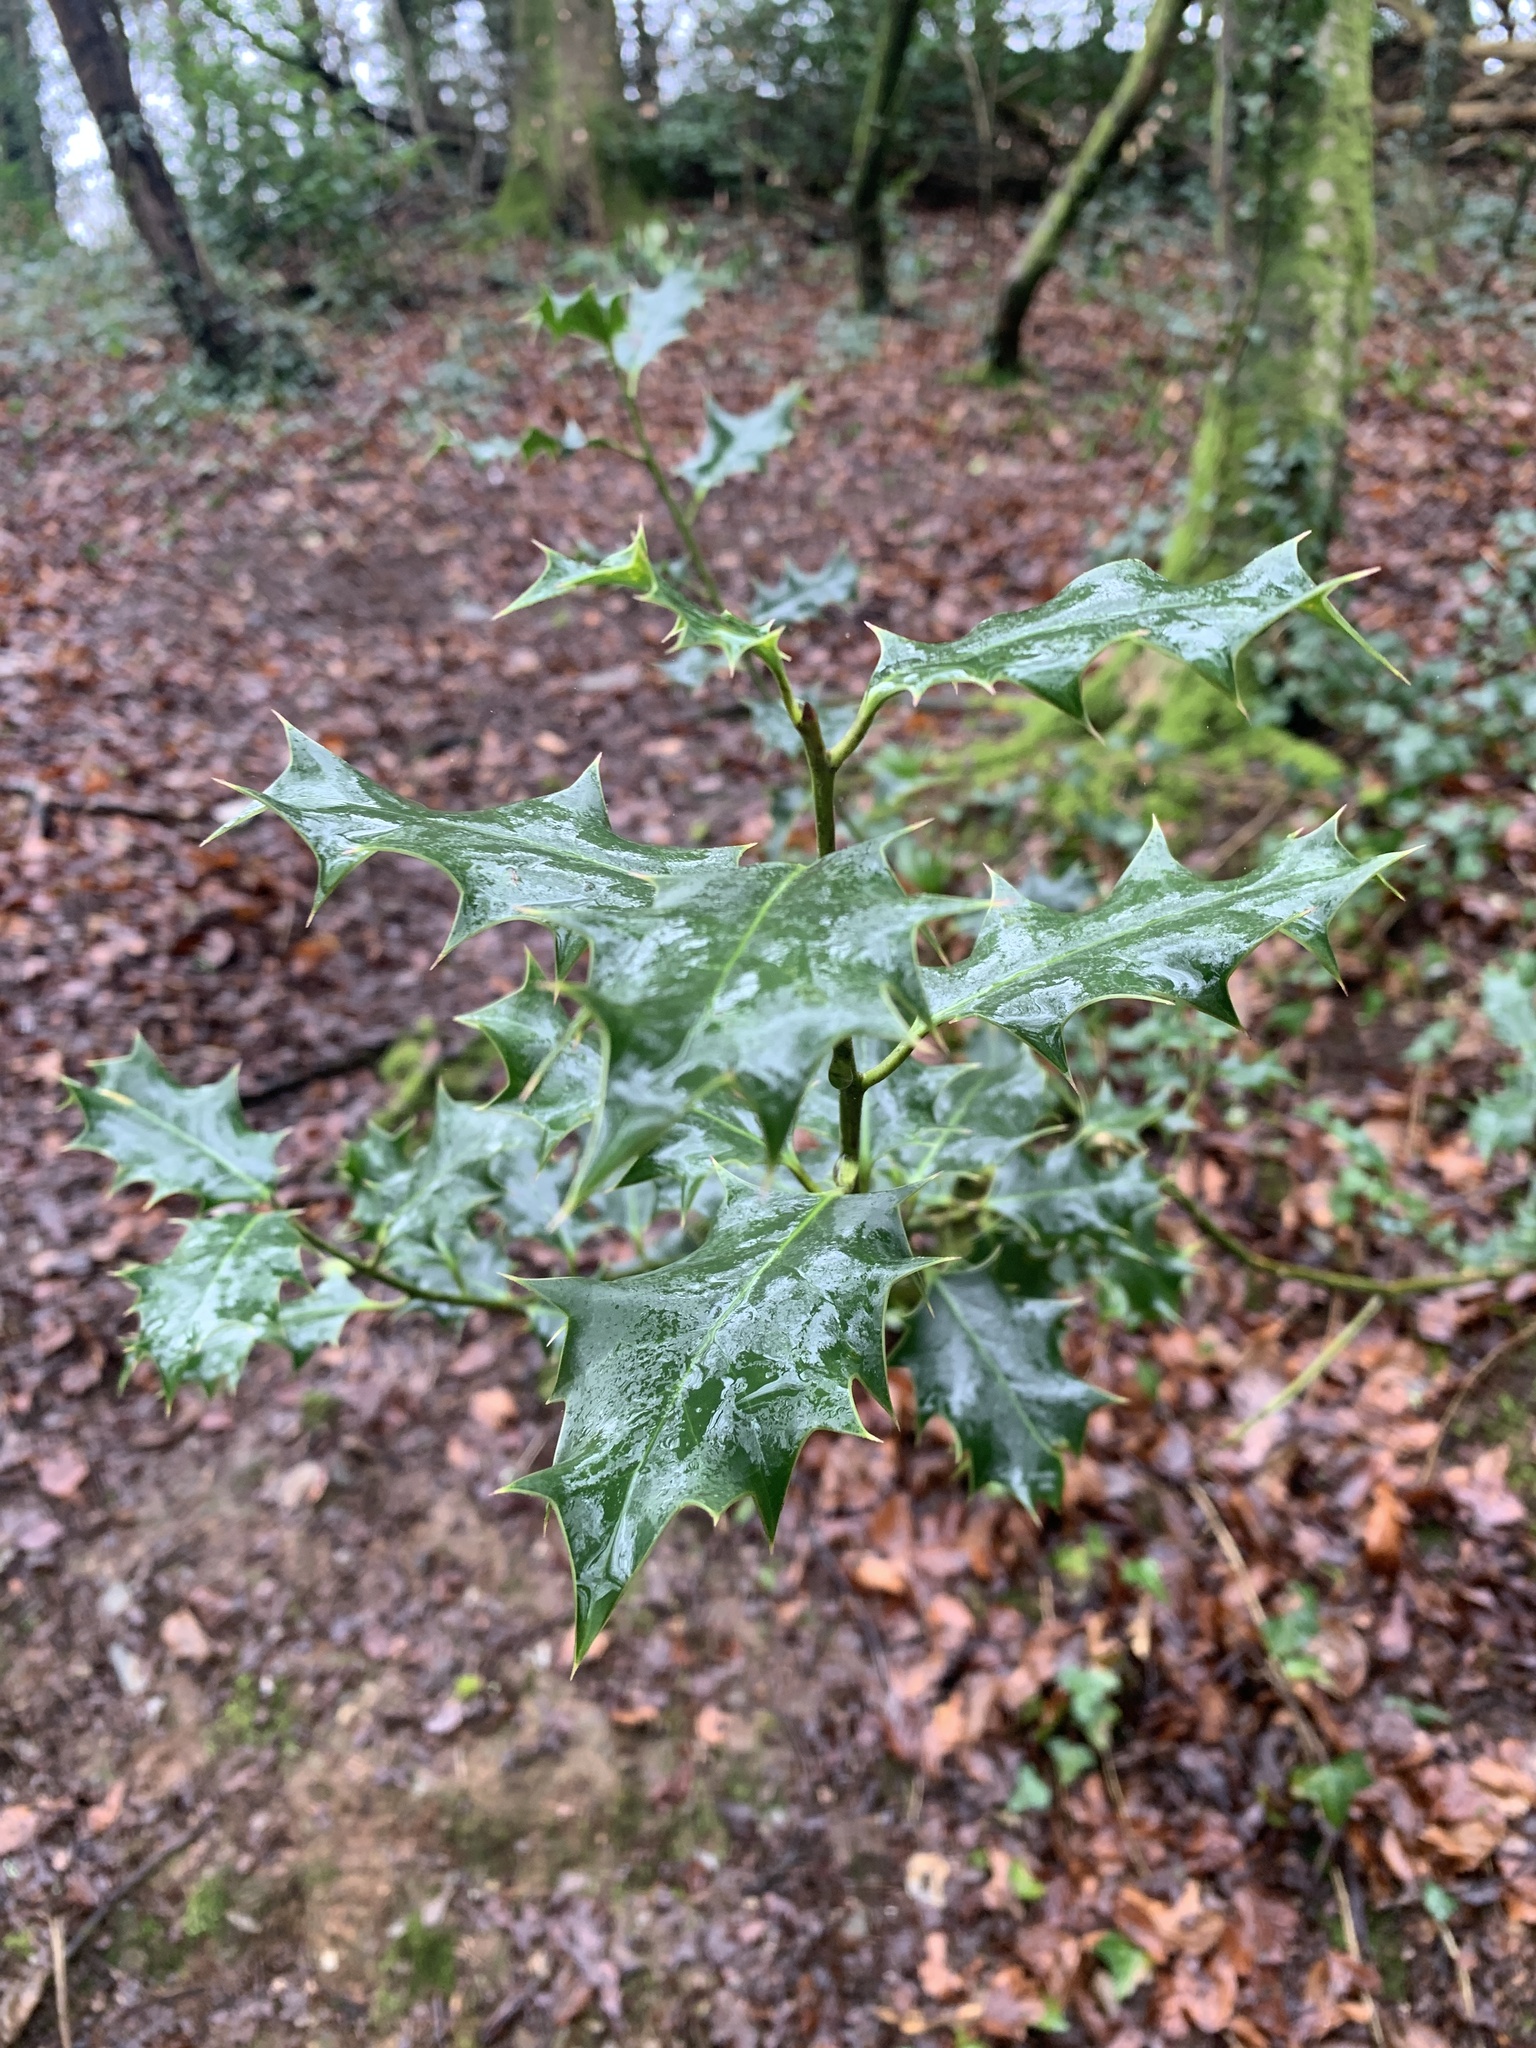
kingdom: Plantae
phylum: Tracheophyta
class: Magnoliopsida
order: Aquifoliales
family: Aquifoliaceae
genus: Ilex
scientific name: Ilex aquifolium
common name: English holly
